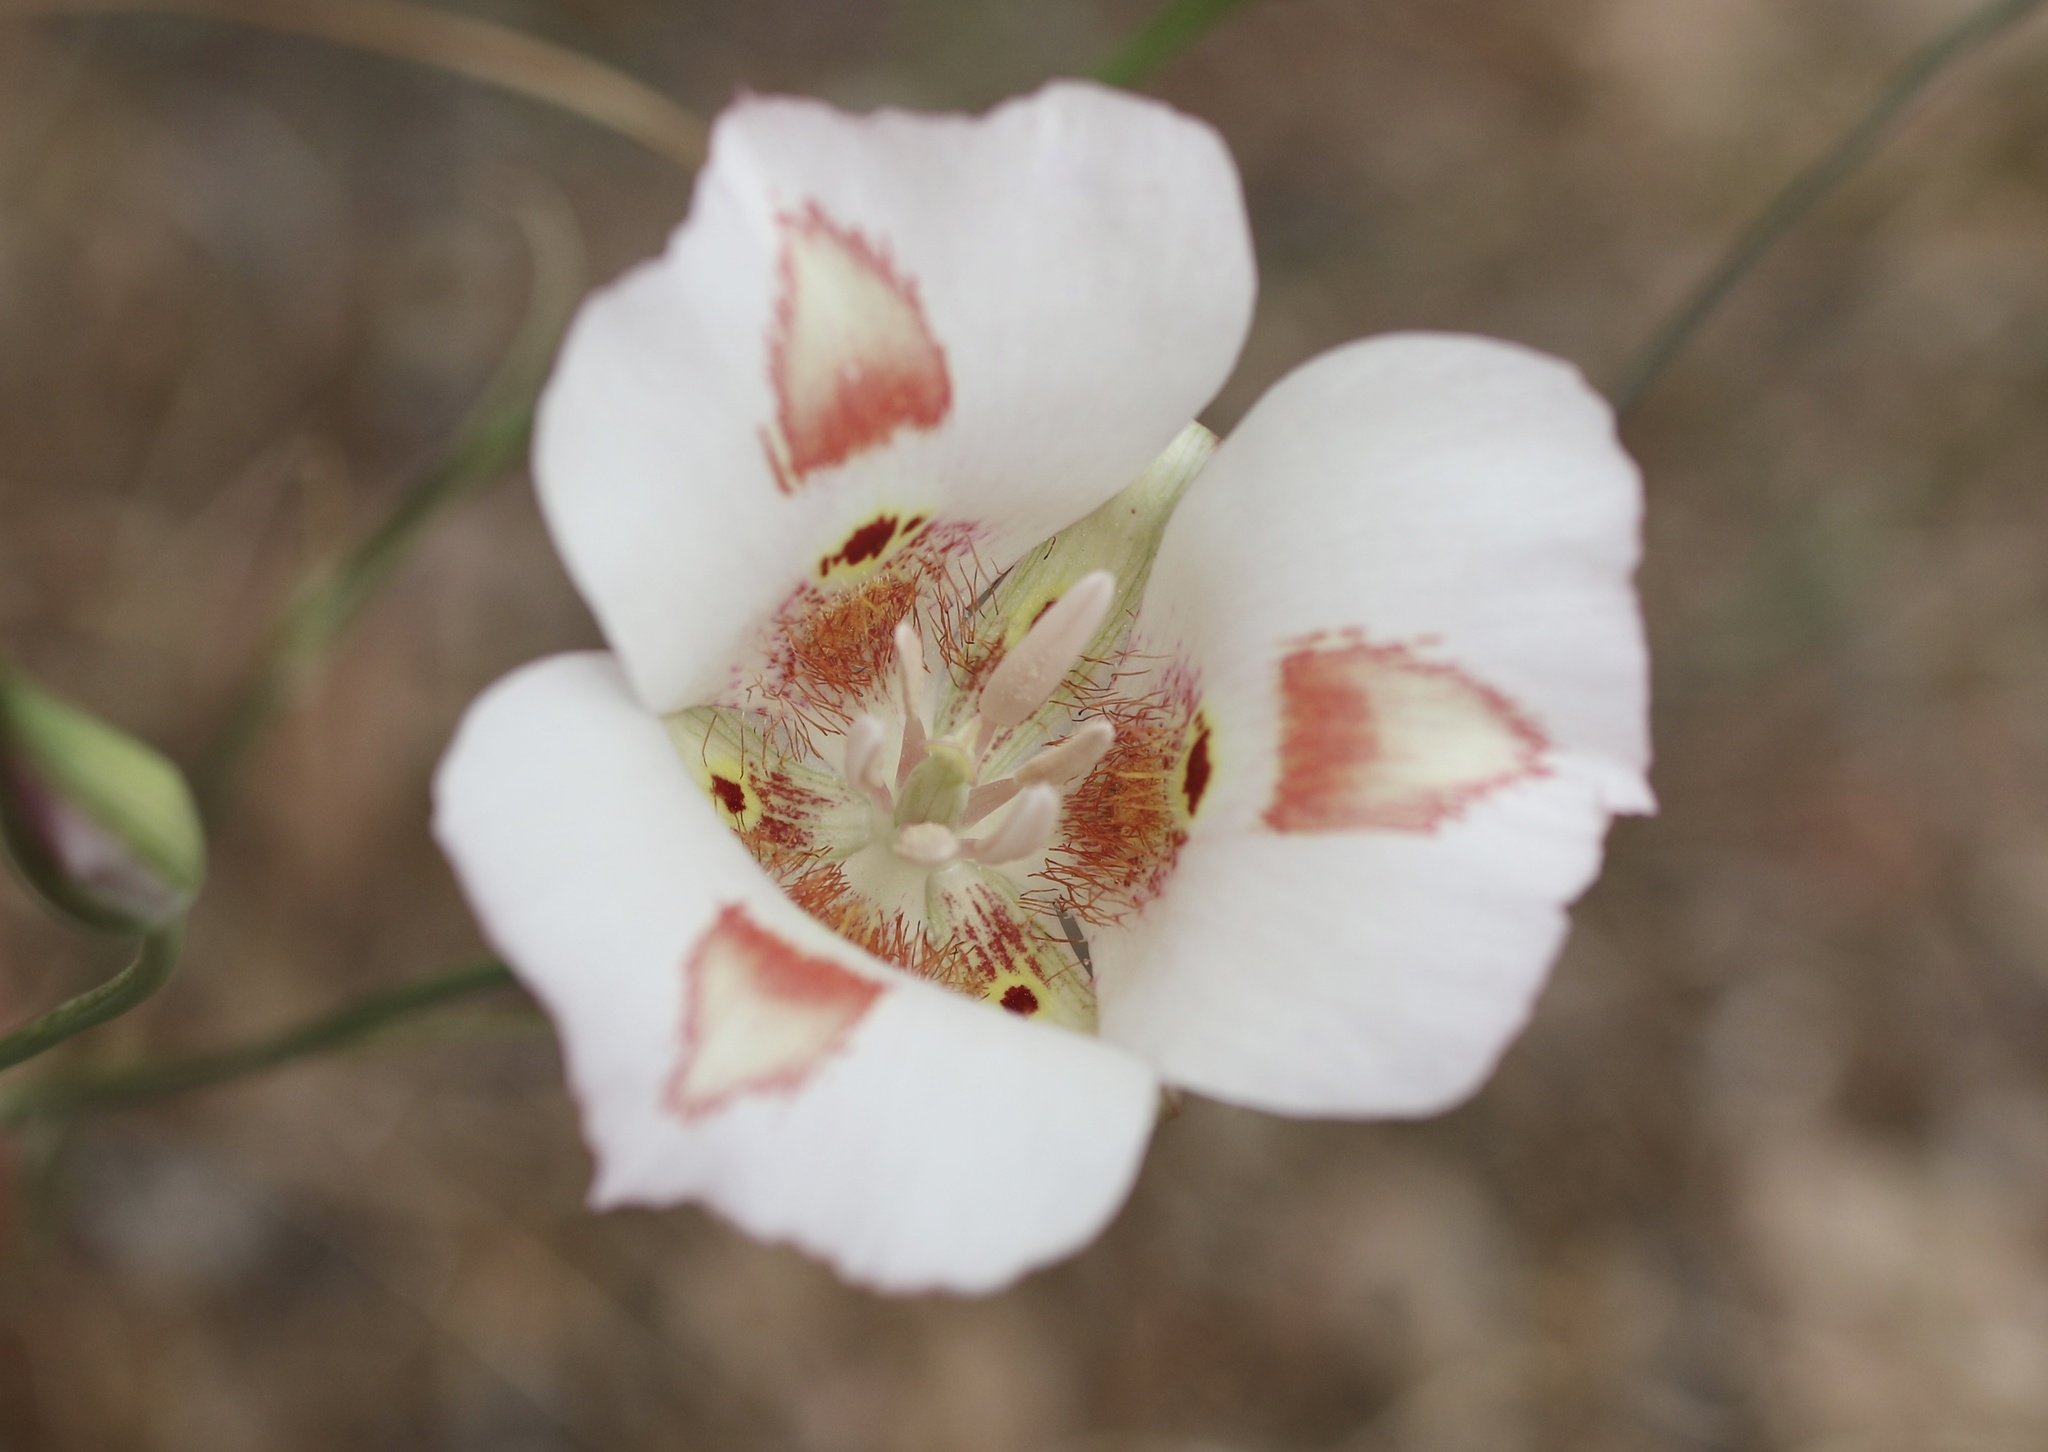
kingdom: Plantae
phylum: Tracheophyta
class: Liliopsida
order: Liliales
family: Liliaceae
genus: Calochortus
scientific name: Calochortus venustus
